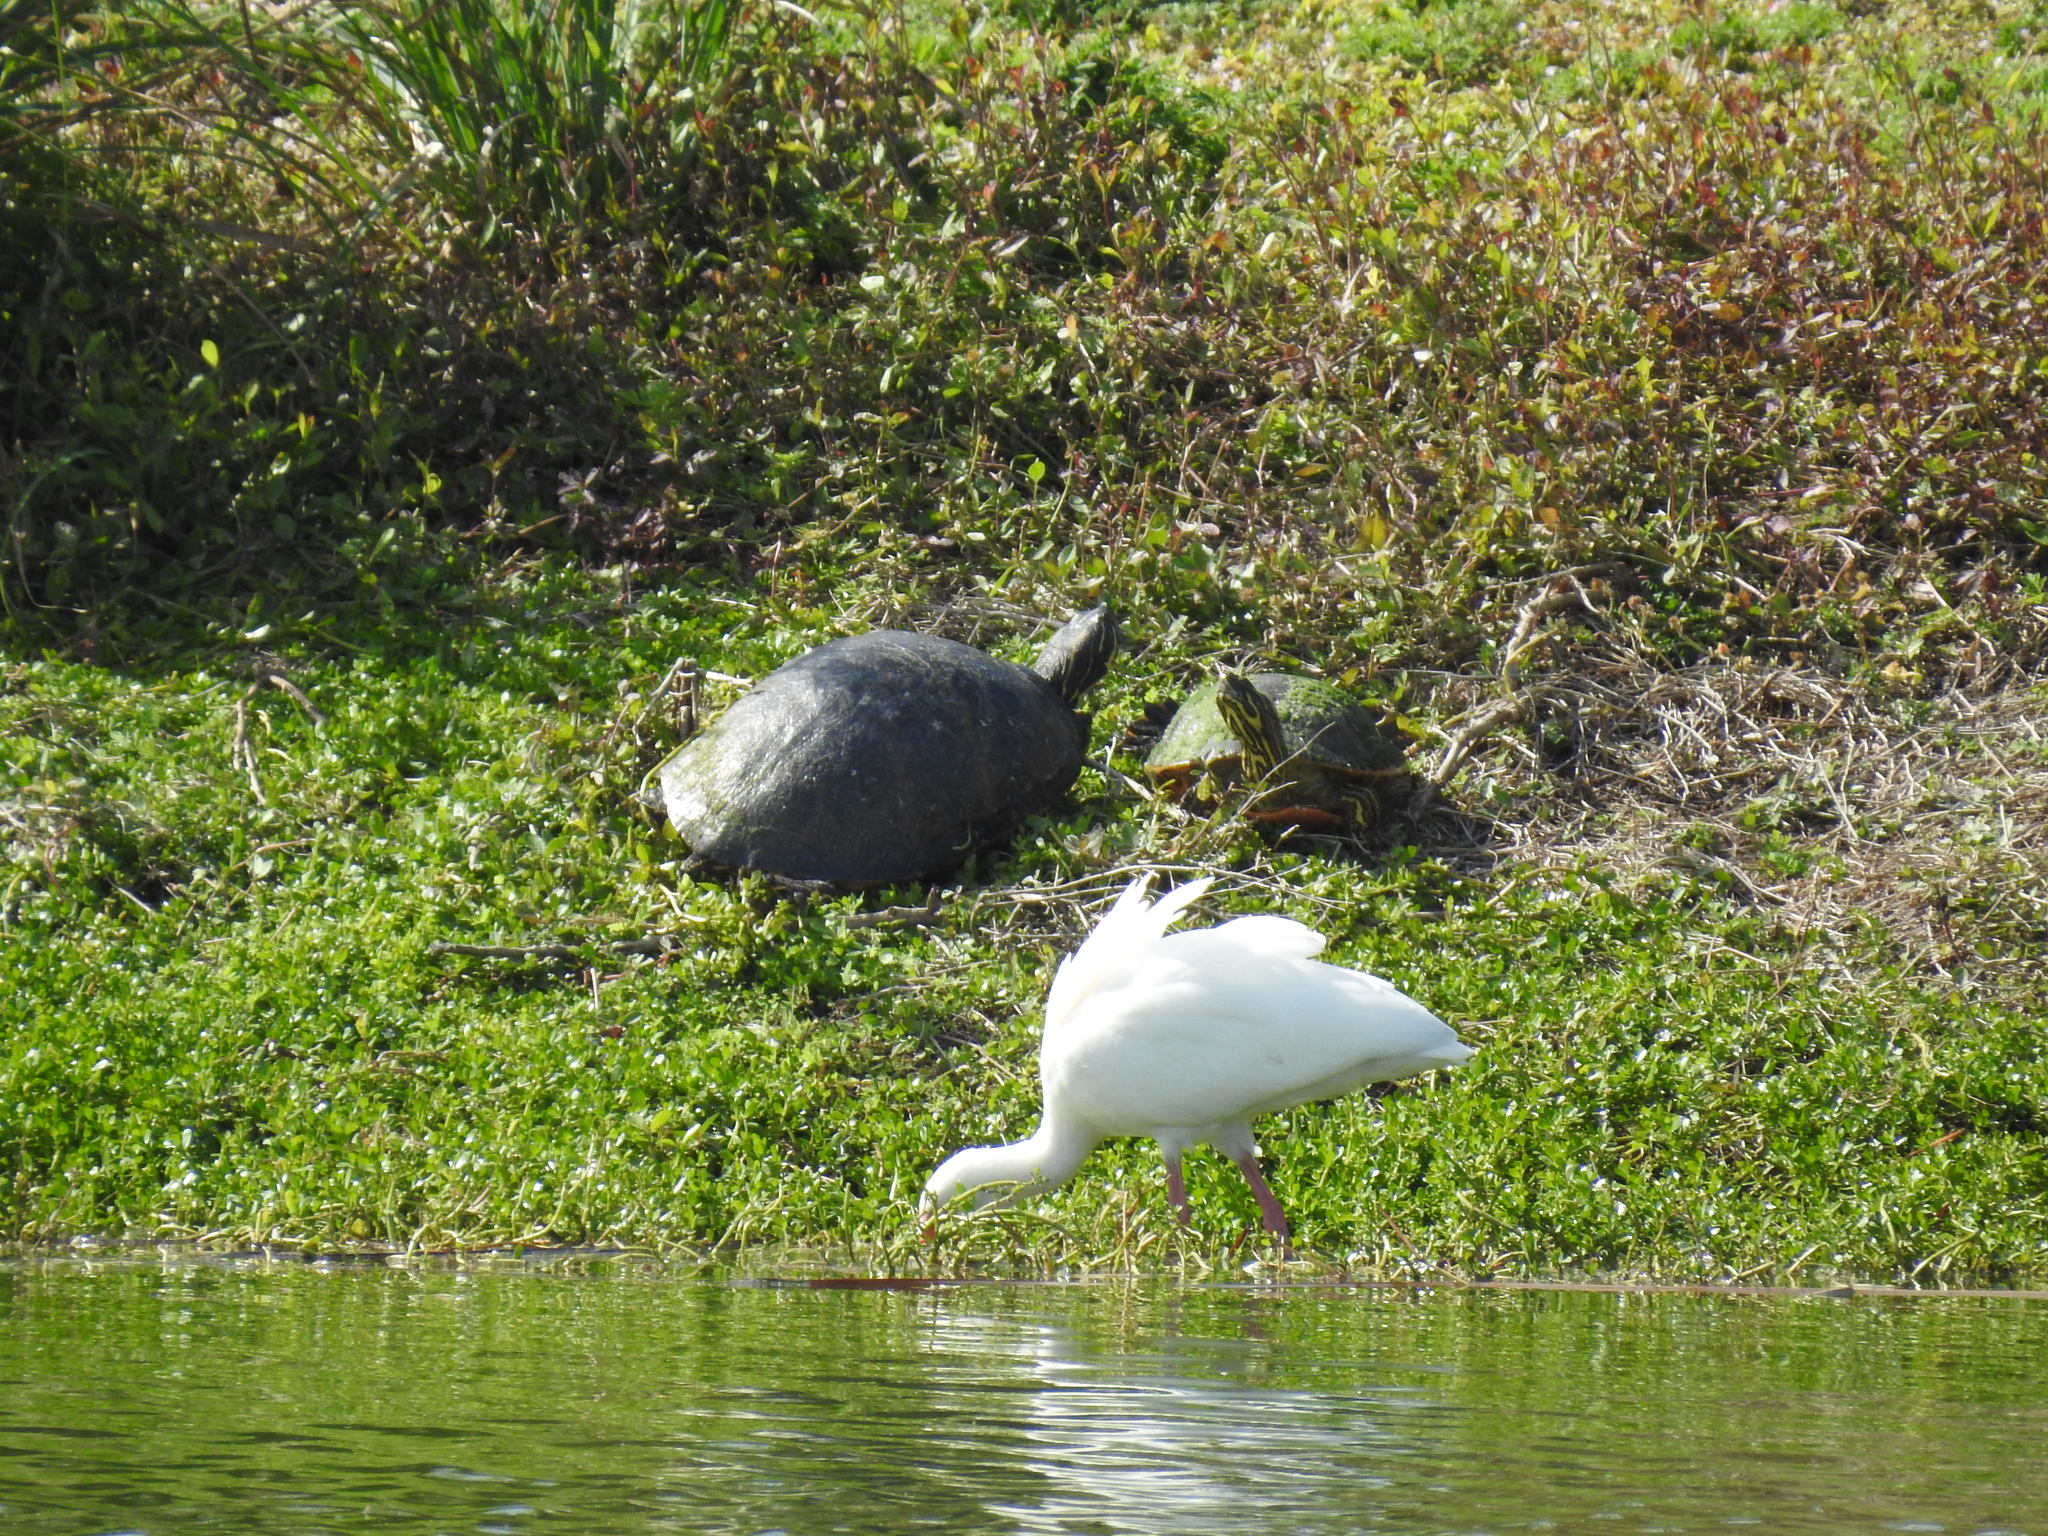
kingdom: Animalia
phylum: Chordata
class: Testudines
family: Emydidae
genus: Pseudemys
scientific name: Pseudemys nelsoni
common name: Florida red-bellied turtle
